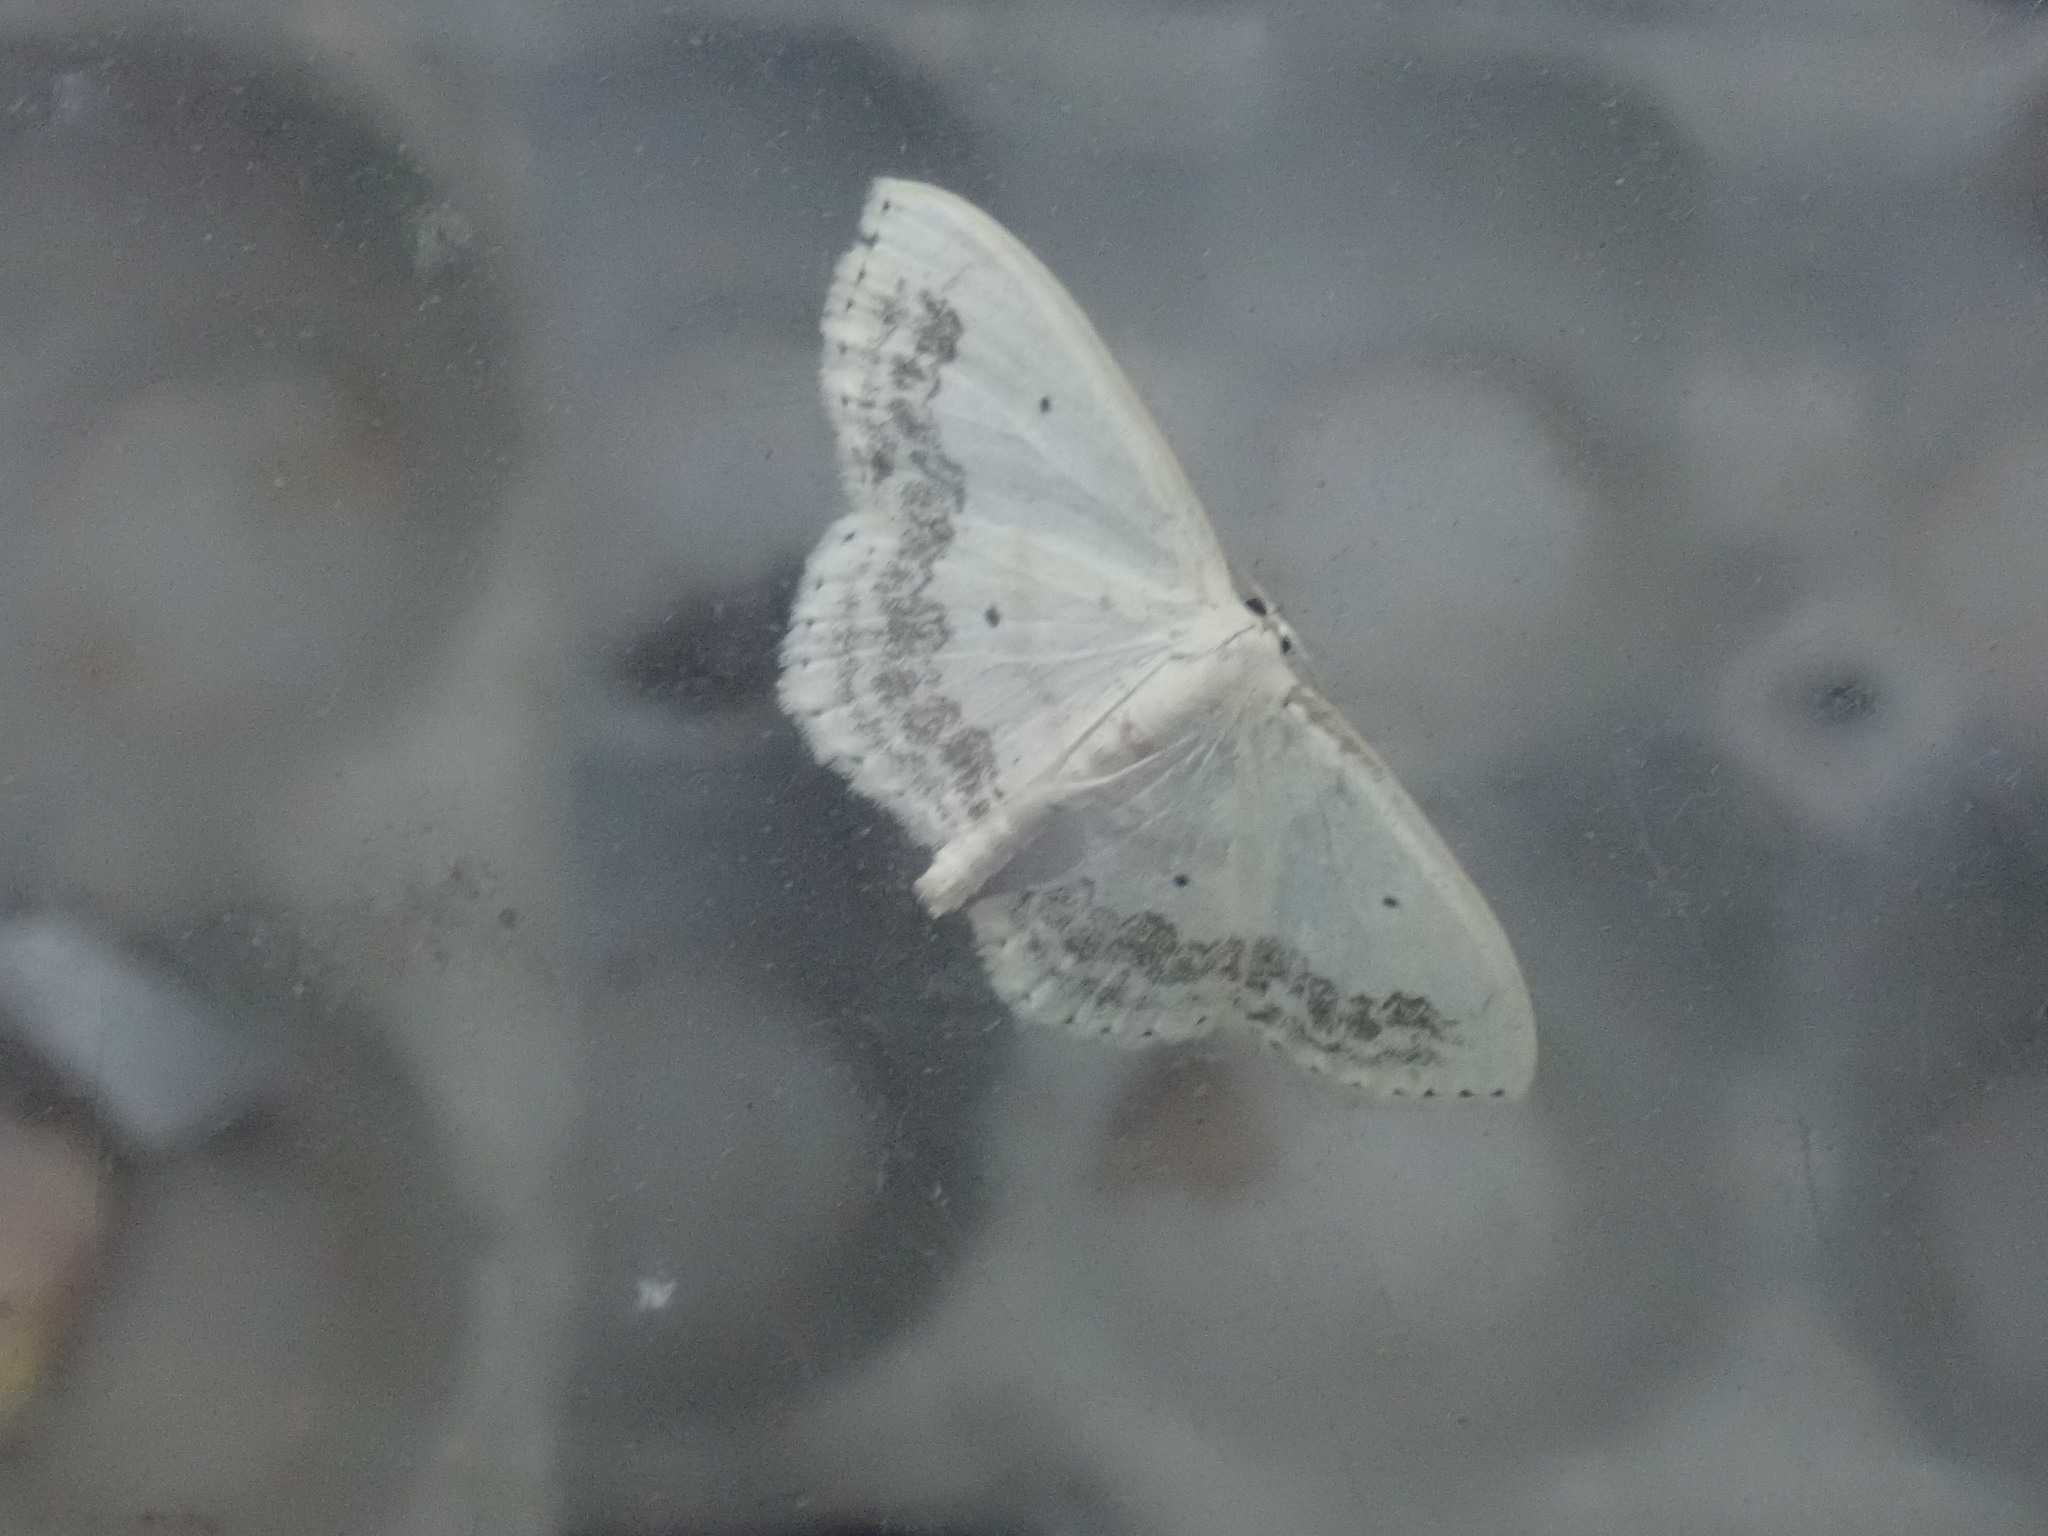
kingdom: Animalia
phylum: Arthropoda
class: Insecta
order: Lepidoptera
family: Geometridae
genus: Scopula
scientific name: Scopula limboundata
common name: Large lace border
